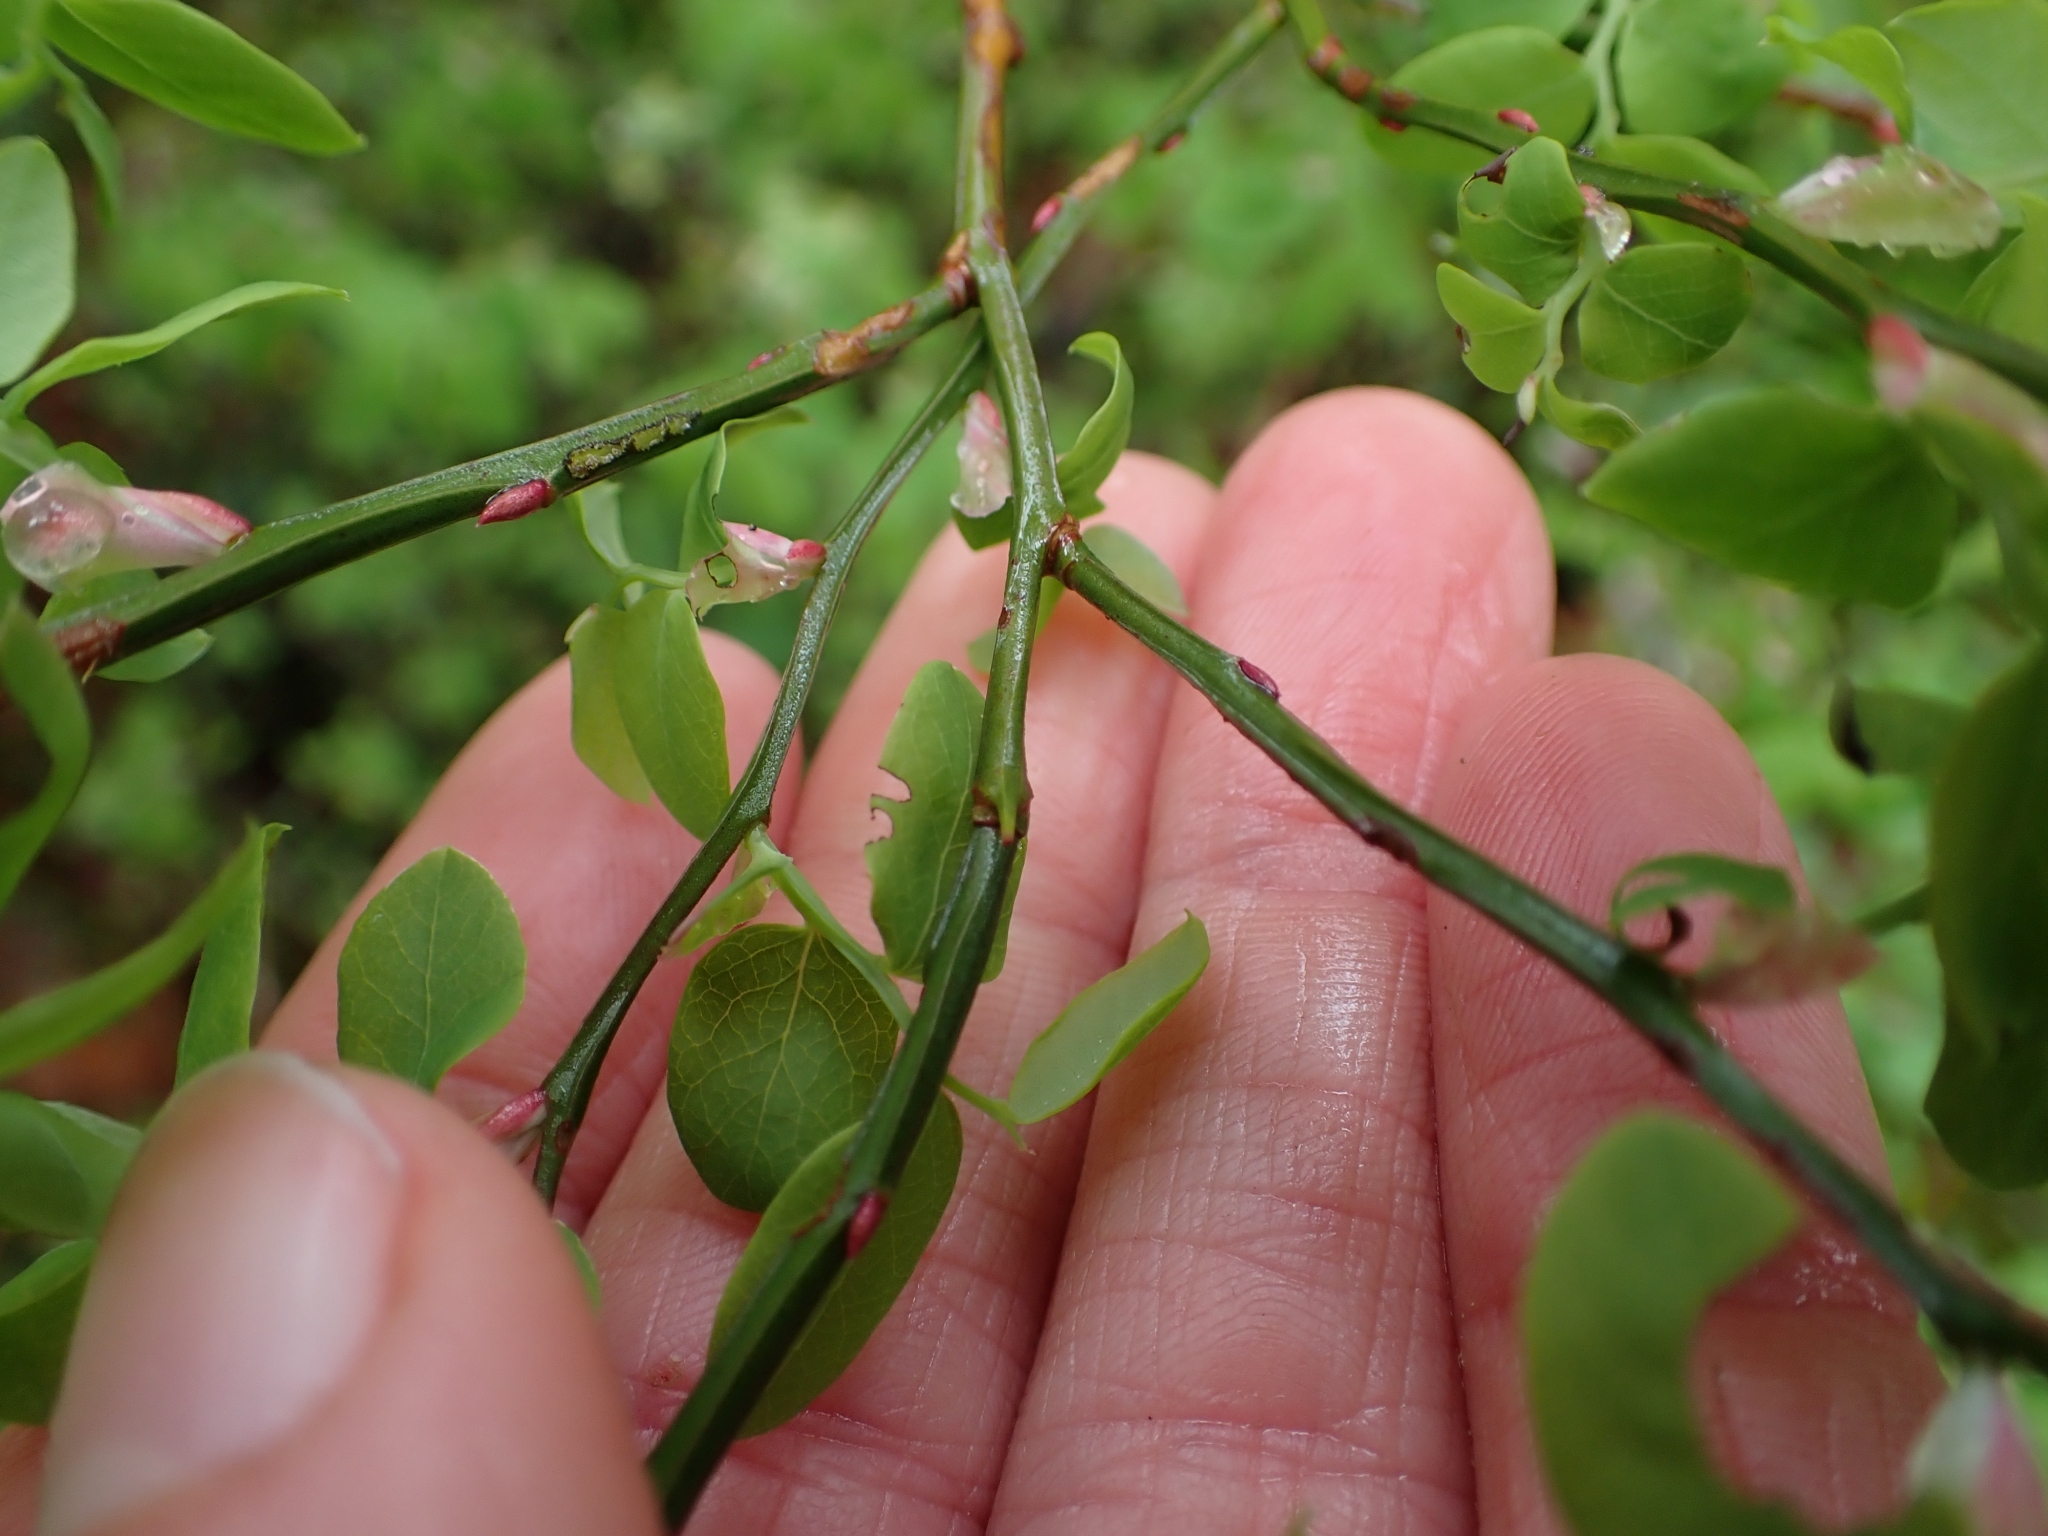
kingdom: Plantae
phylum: Tracheophyta
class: Magnoliopsida
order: Ericales
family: Ericaceae
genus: Vaccinium
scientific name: Vaccinium parvifolium
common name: Red-huckleberry
